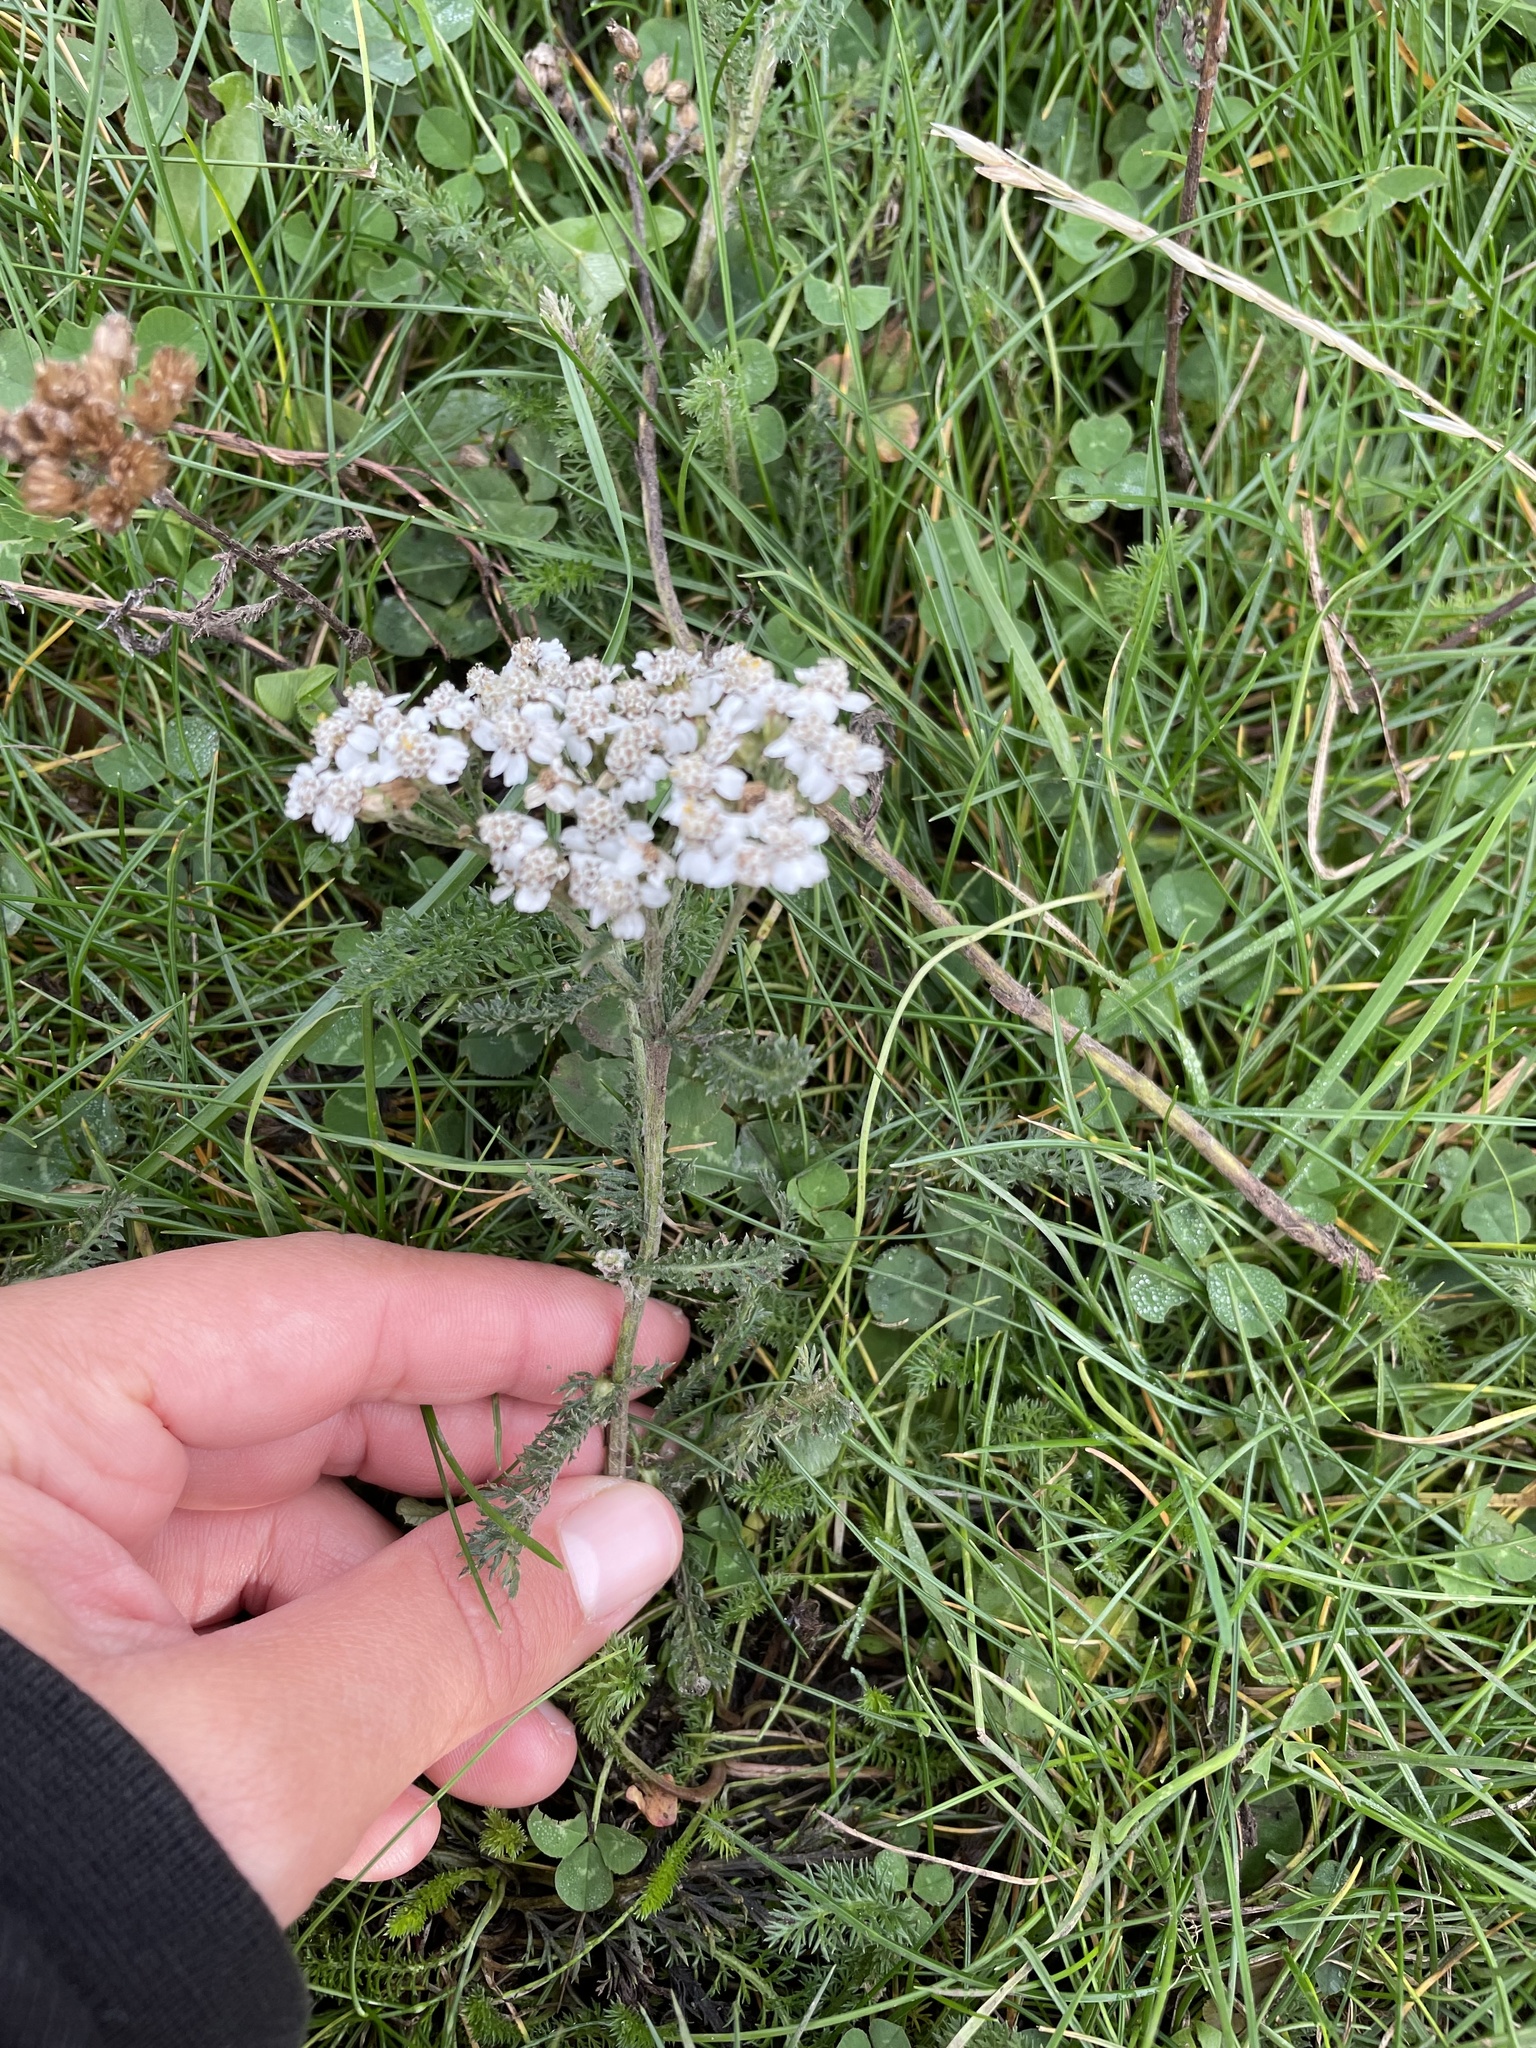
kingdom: Plantae
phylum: Tracheophyta
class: Magnoliopsida
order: Asterales
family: Asteraceae
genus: Achillea
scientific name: Achillea millefolium
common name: Yarrow
